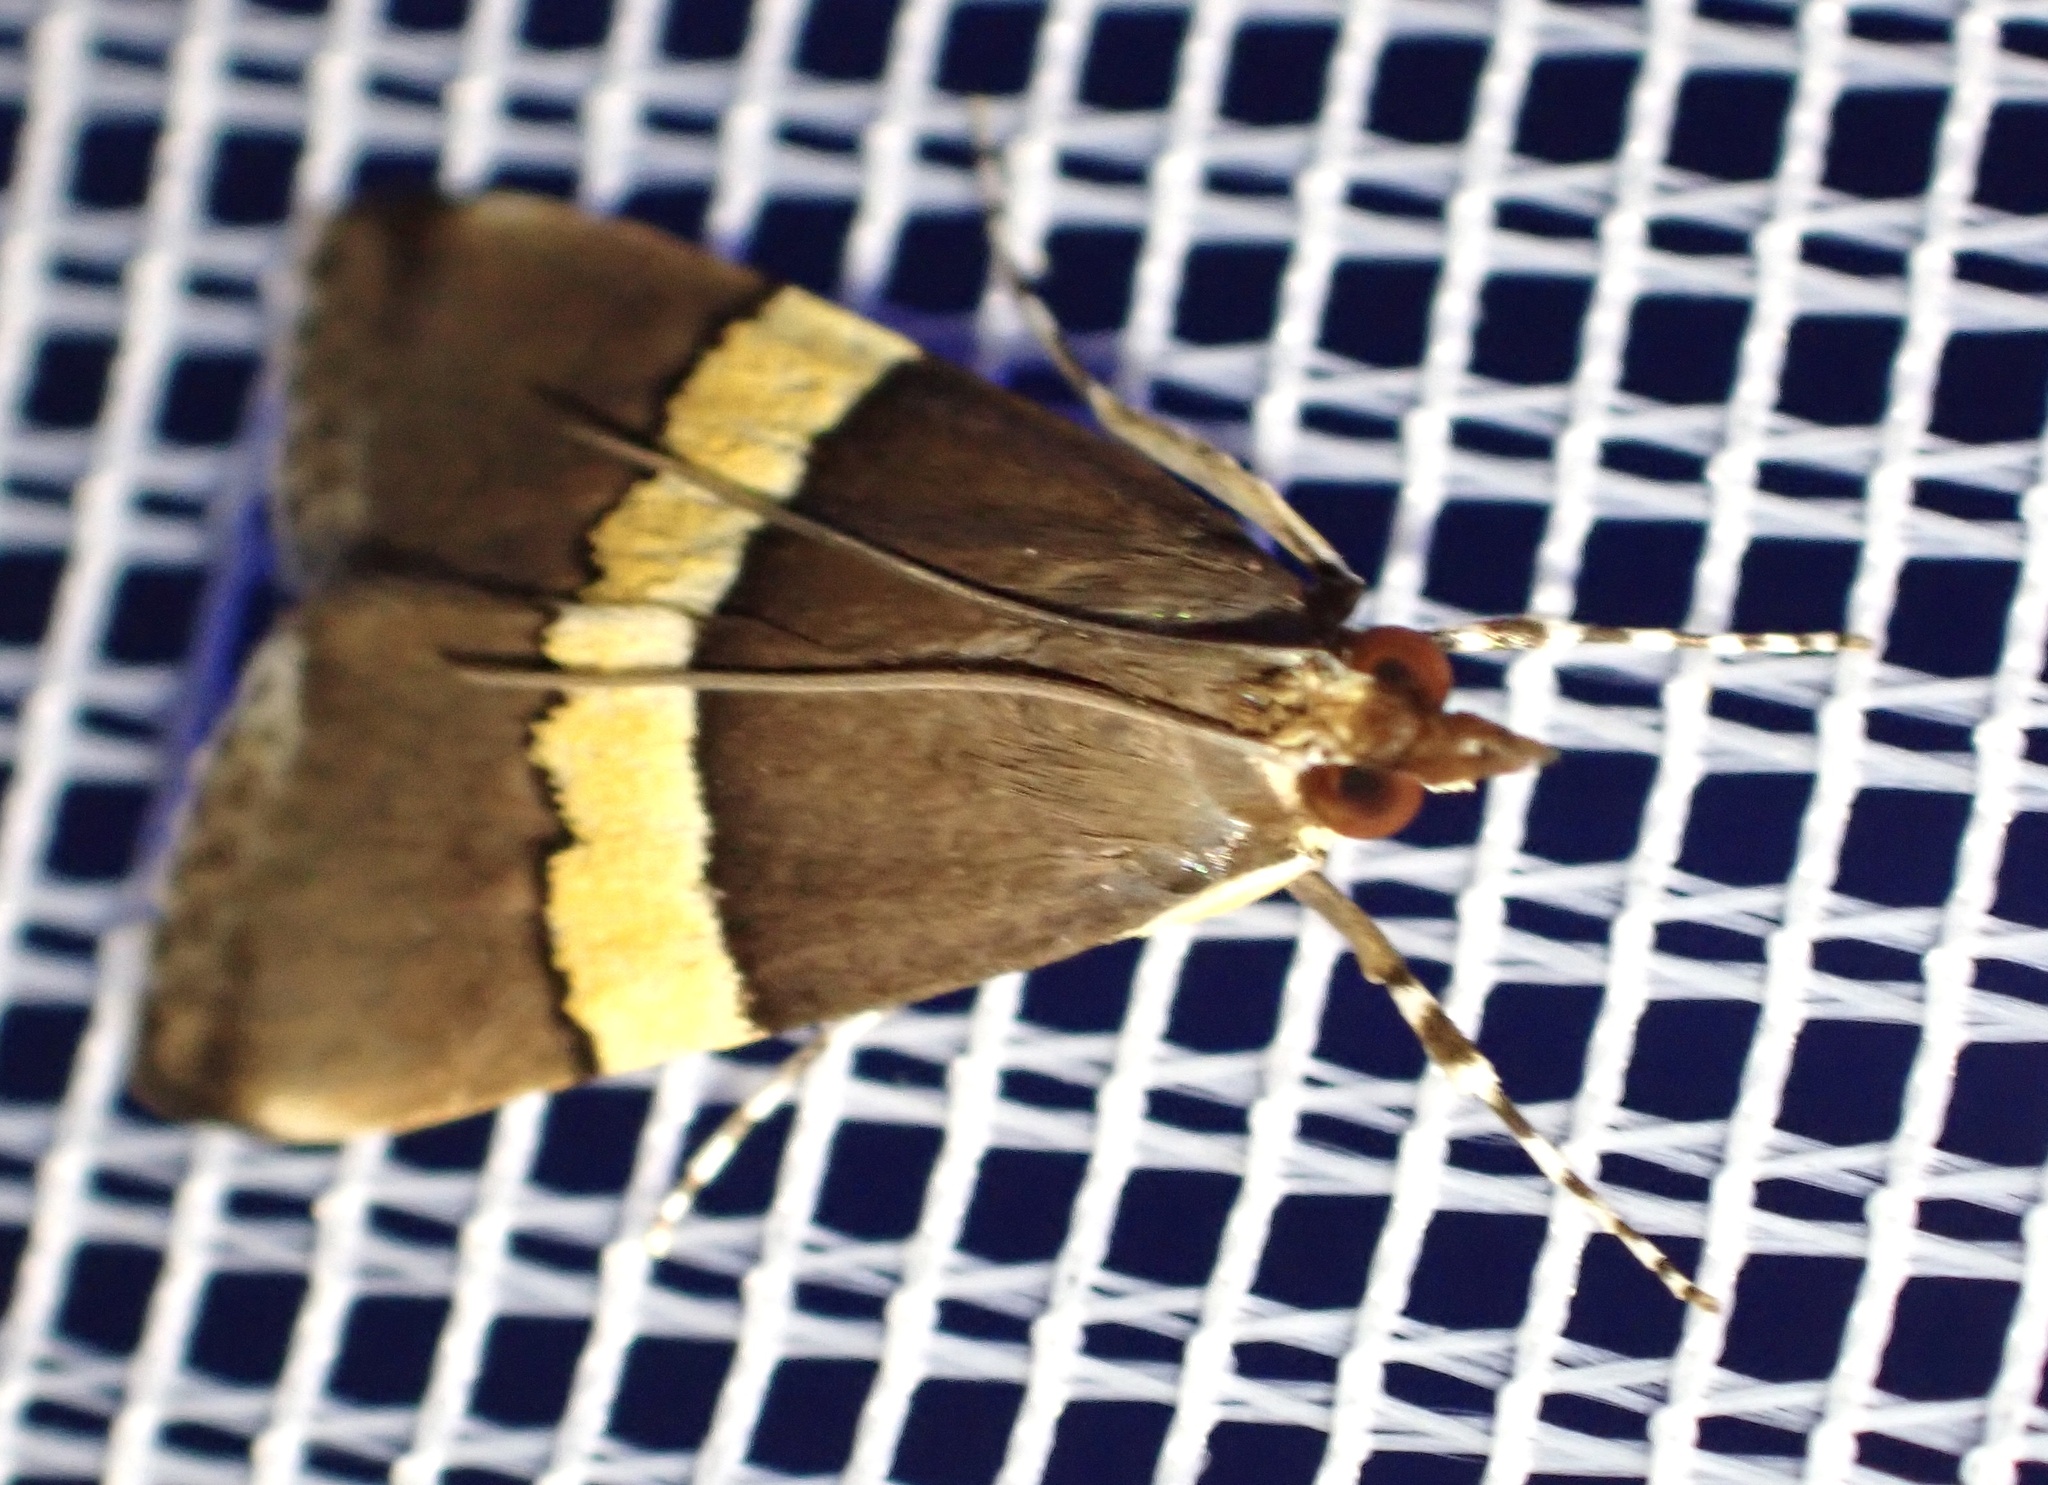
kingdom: Animalia
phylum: Arthropoda
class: Insecta
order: Lepidoptera
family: Crambidae
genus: Boeotarcha
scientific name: Boeotarcha divisa
